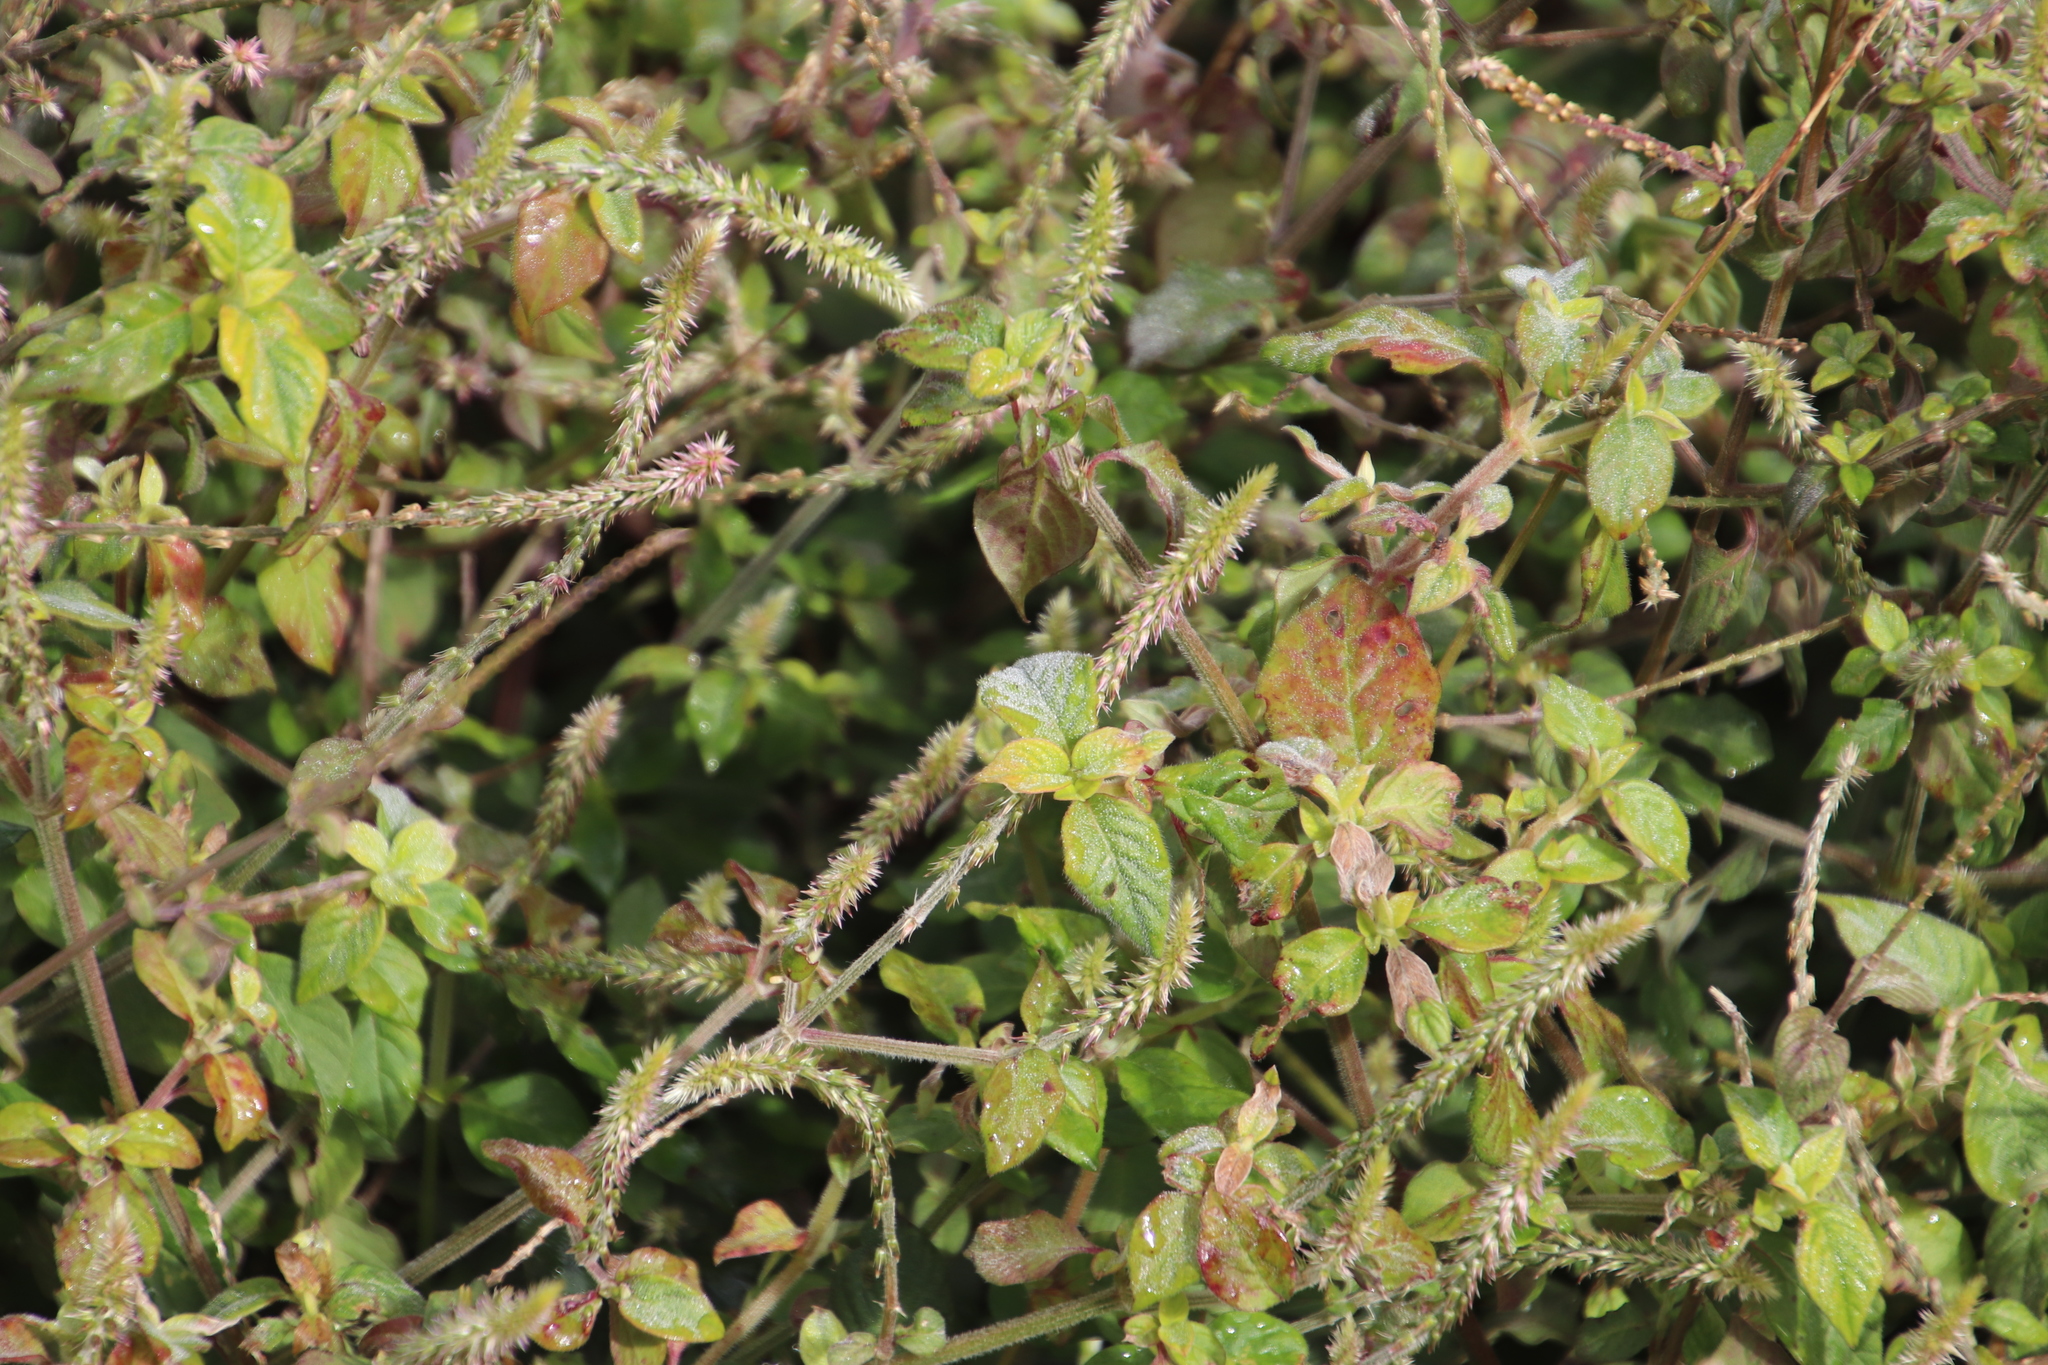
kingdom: Plantae
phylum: Tracheophyta
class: Magnoliopsida
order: Caryophyllales
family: Amaranthaceae
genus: Achyranthes
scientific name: Achyranthes aspera
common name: Devil's horsewhip
